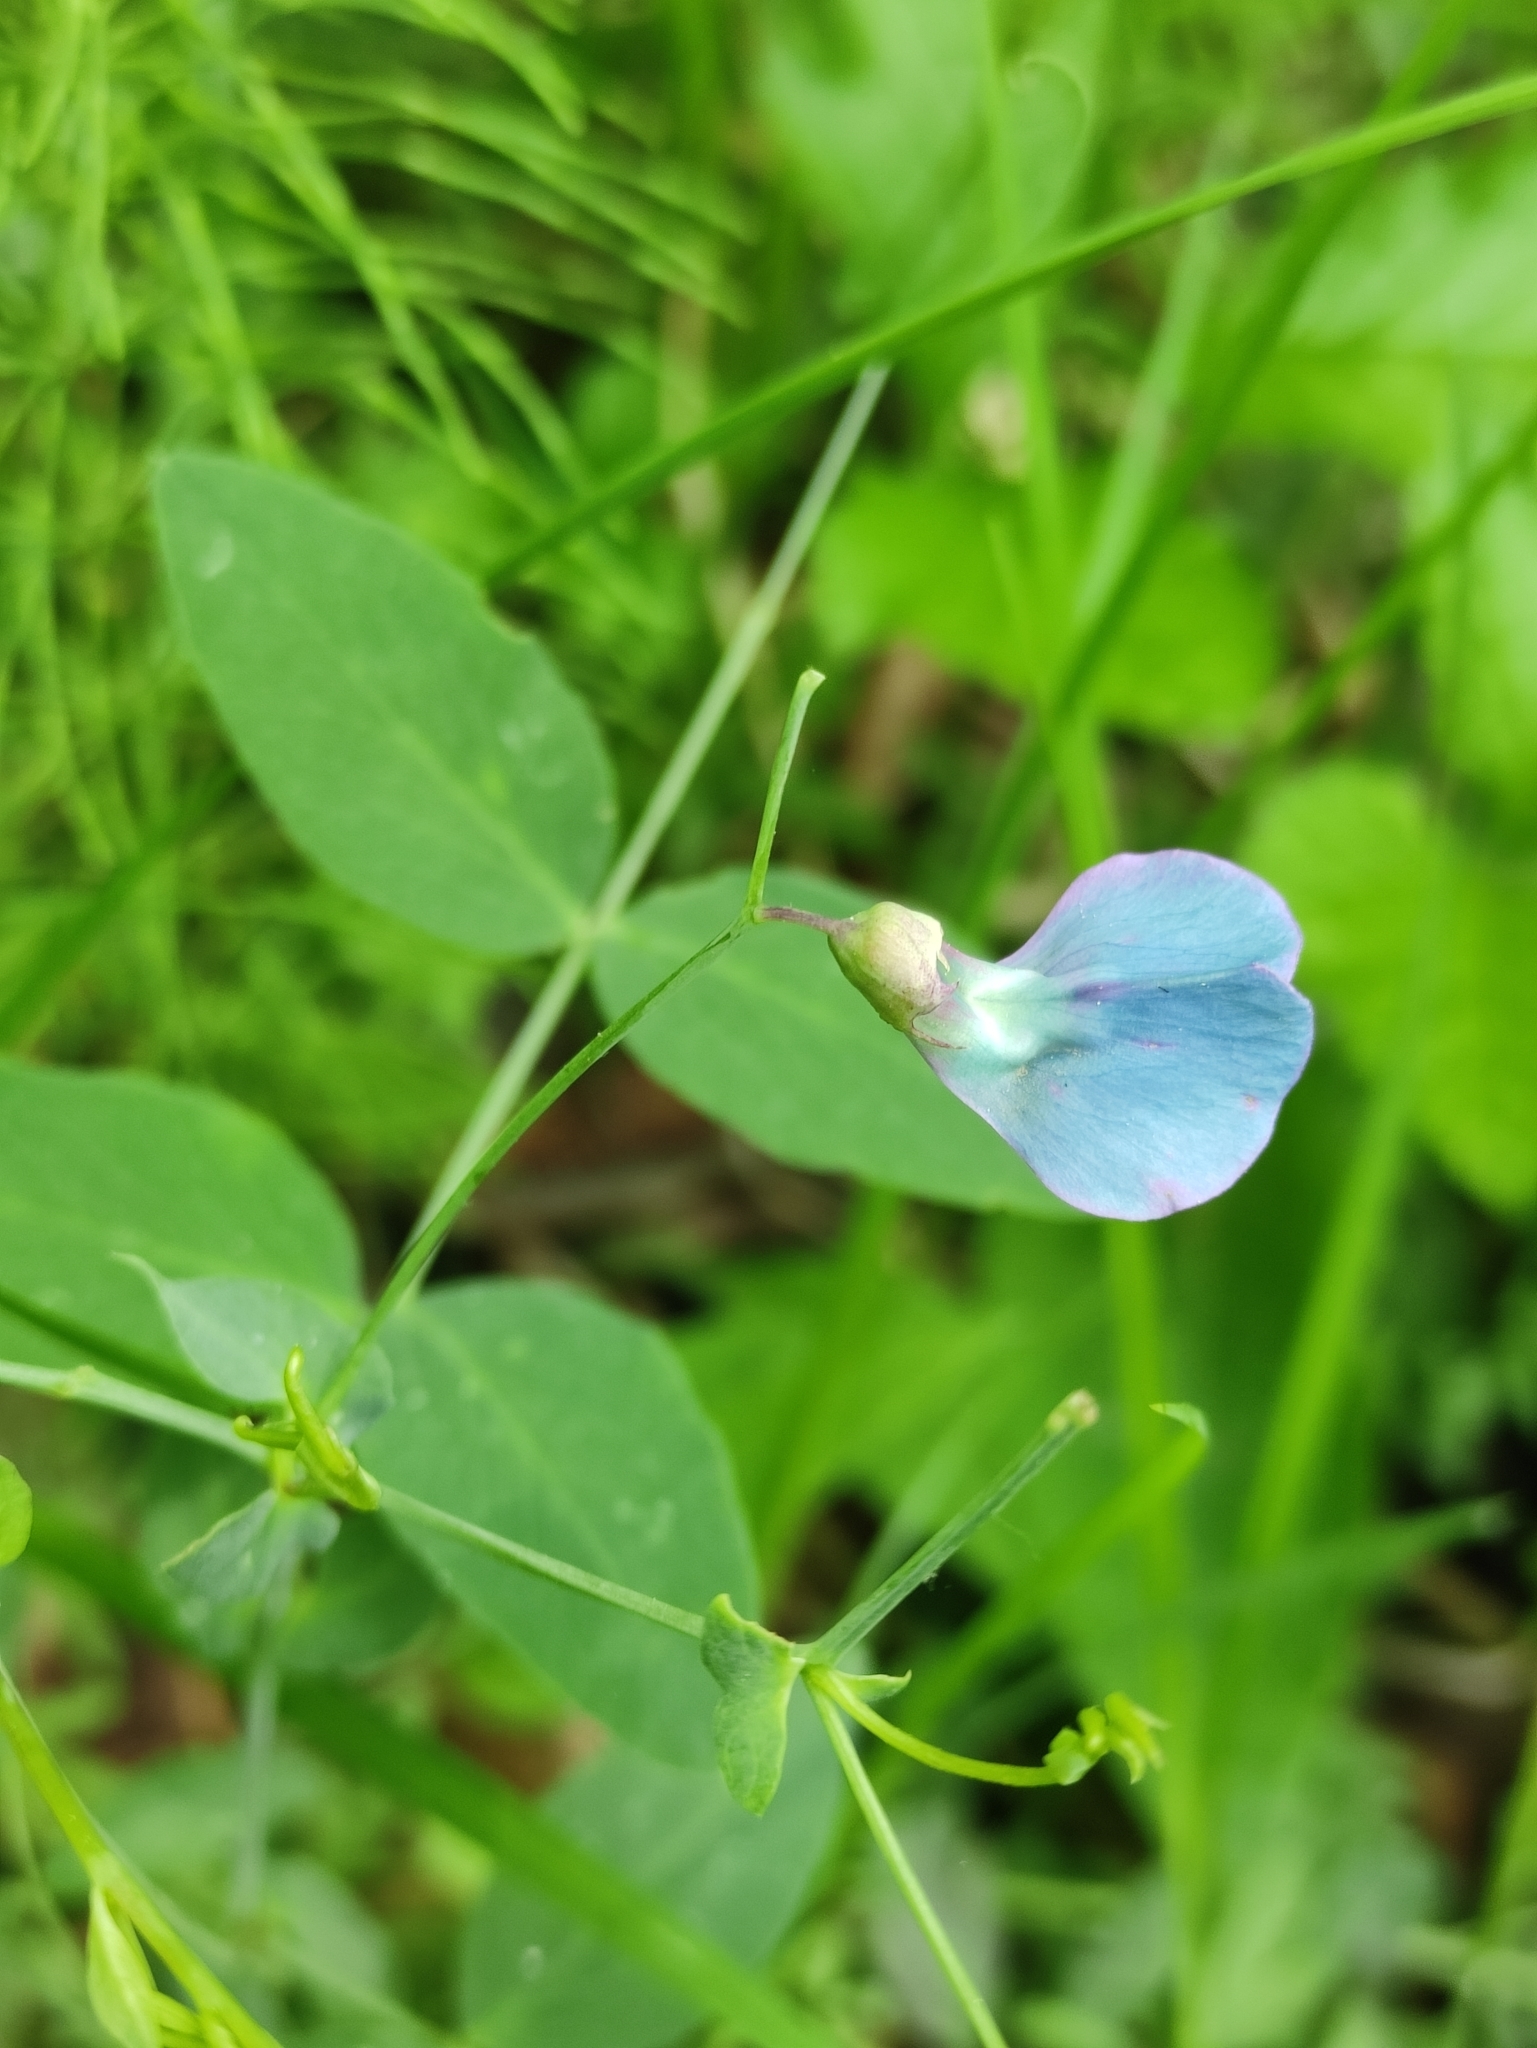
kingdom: Plantae
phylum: Tracheophyta
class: Magnoliopsida
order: Fabales
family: Fabaceae
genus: Lathyrus
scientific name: Lathyrus humilis
